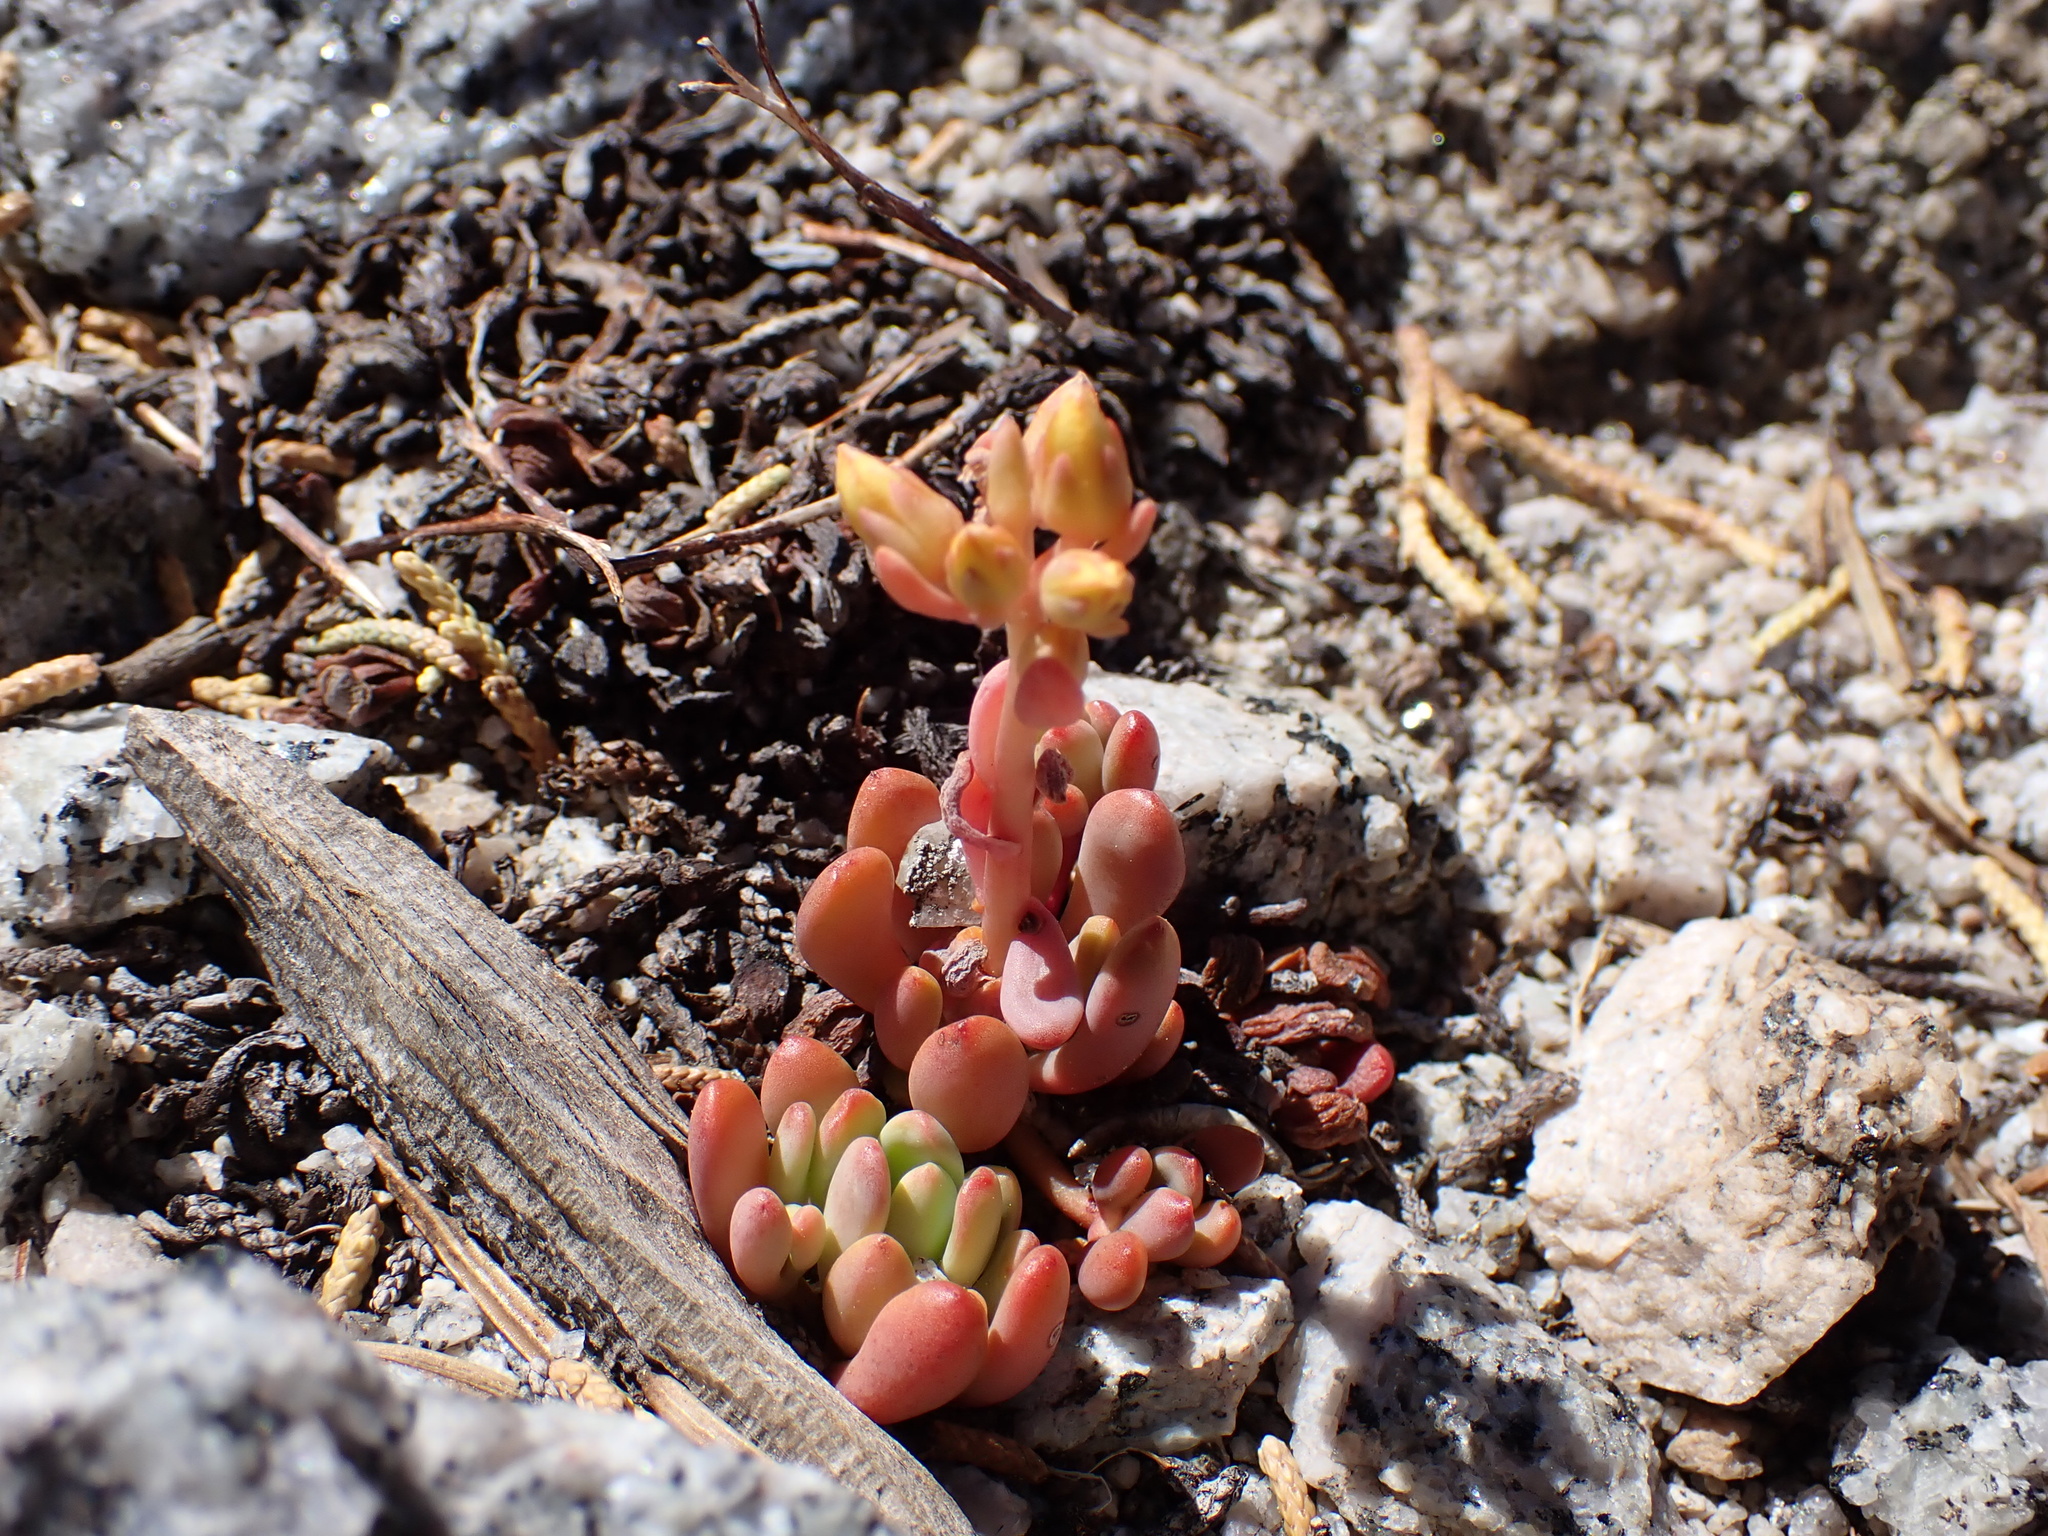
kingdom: Plantae
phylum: Tracheophyta
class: Magnoliopsida
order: Saxifragales
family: Crassulaceae
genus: Sedum
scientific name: Sedum obtusatum
